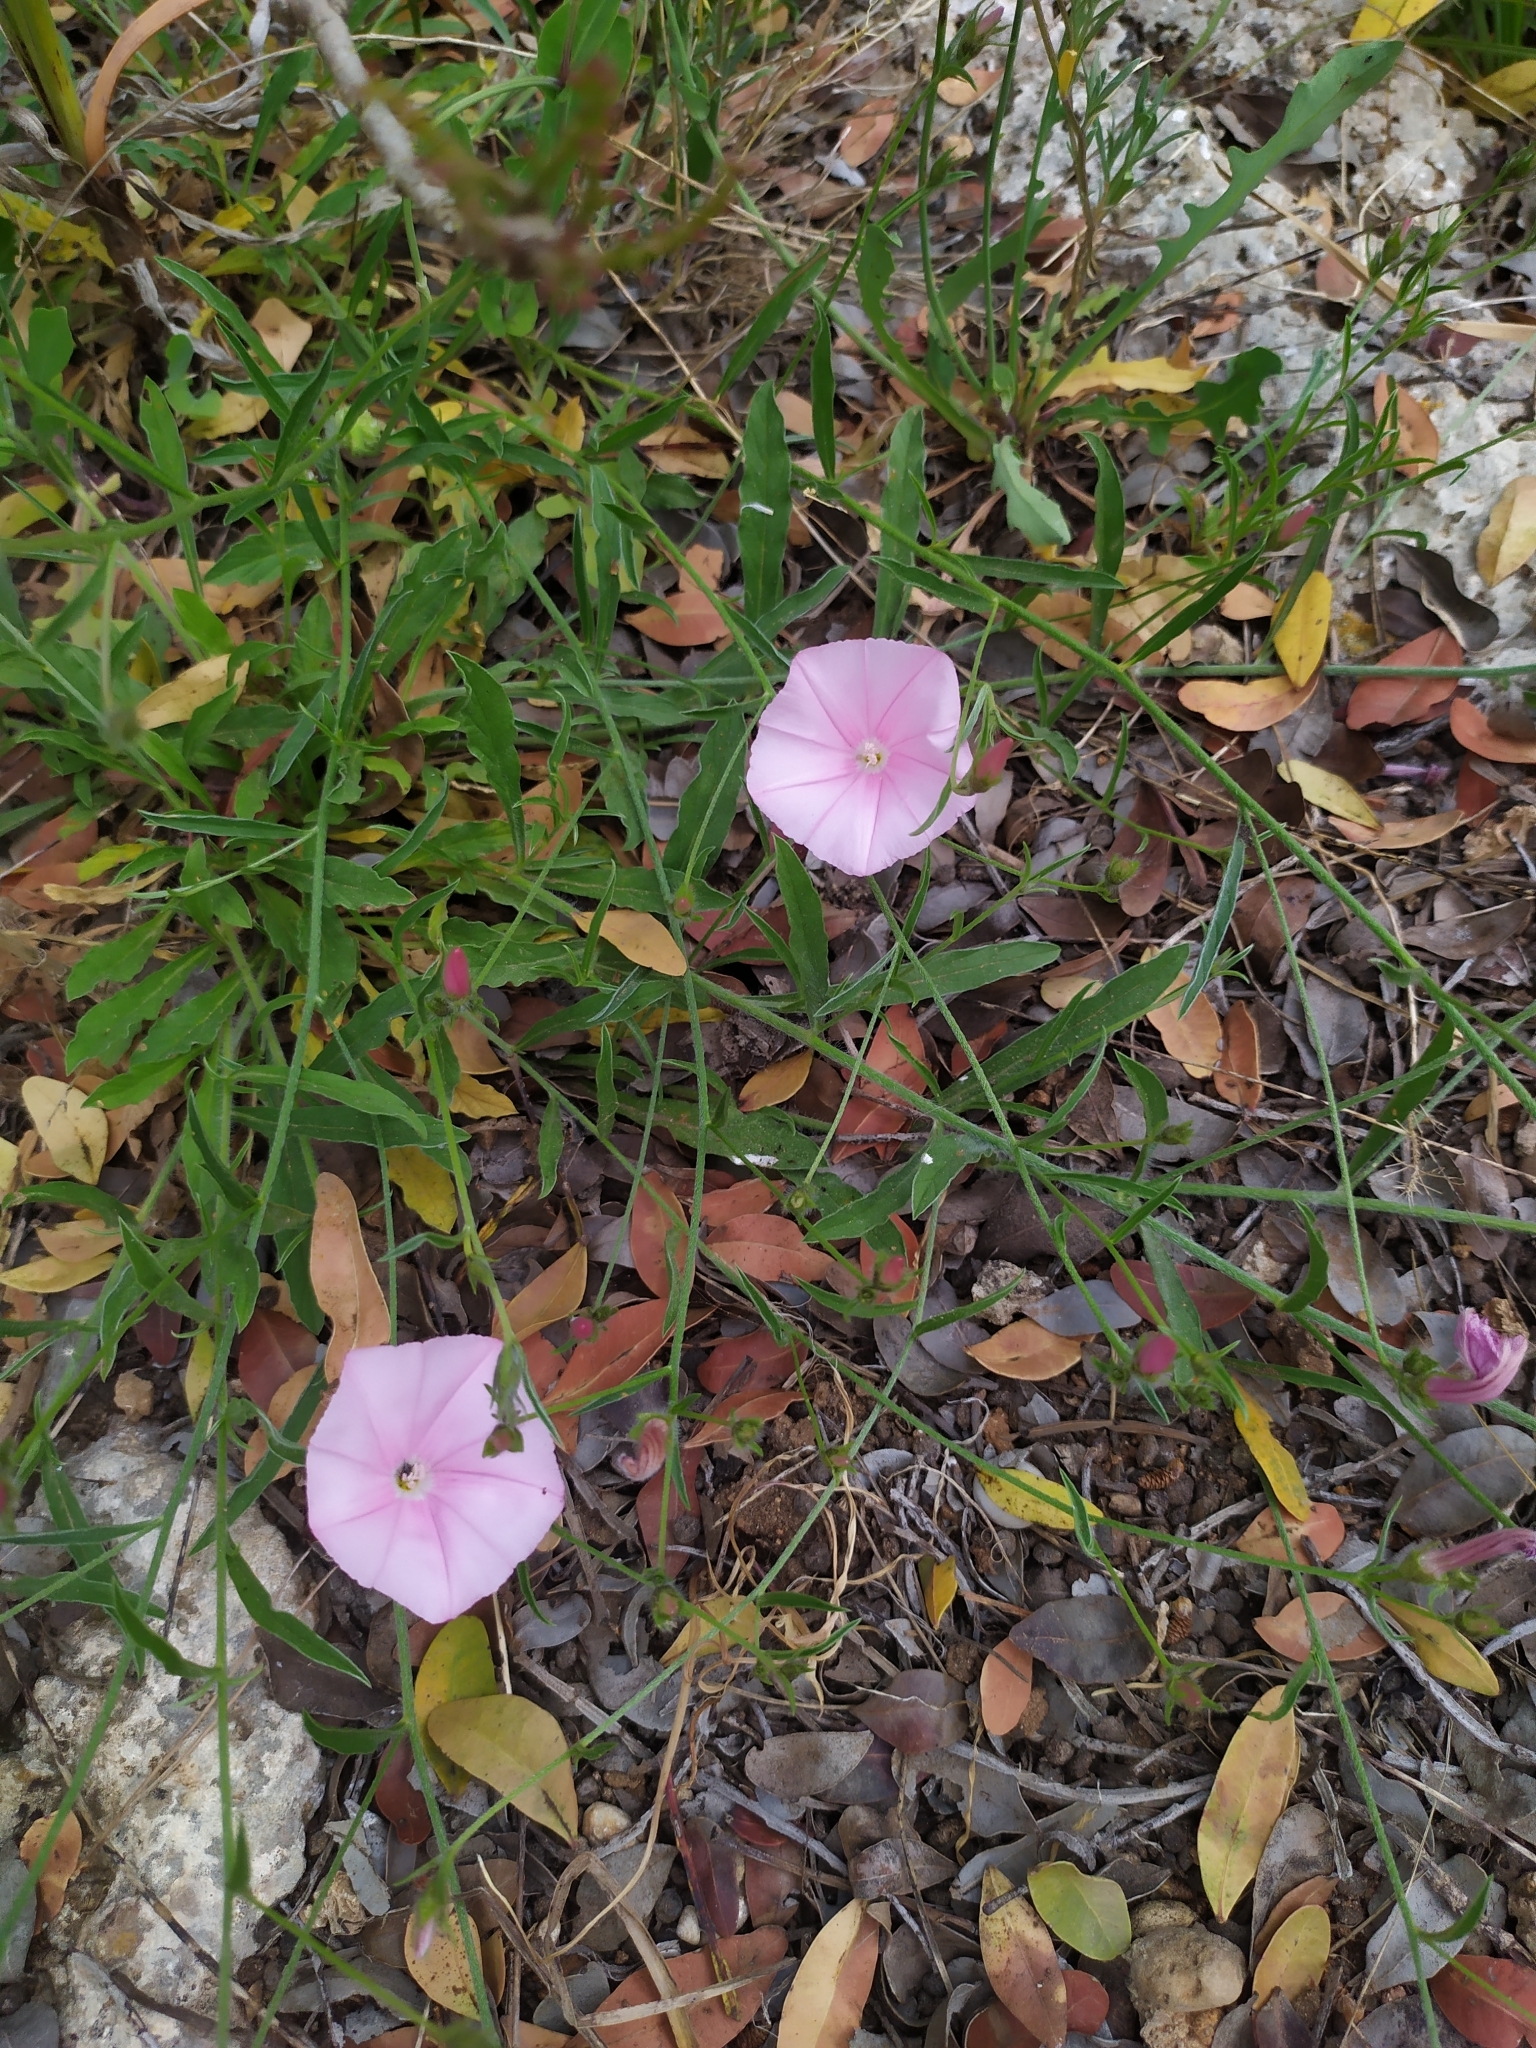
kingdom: Plantae
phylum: Tracheophyta
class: Magnoliopsida
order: Solanales
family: Convolvulaceae
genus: Convolvulus
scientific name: Convolvulus cantabrica
